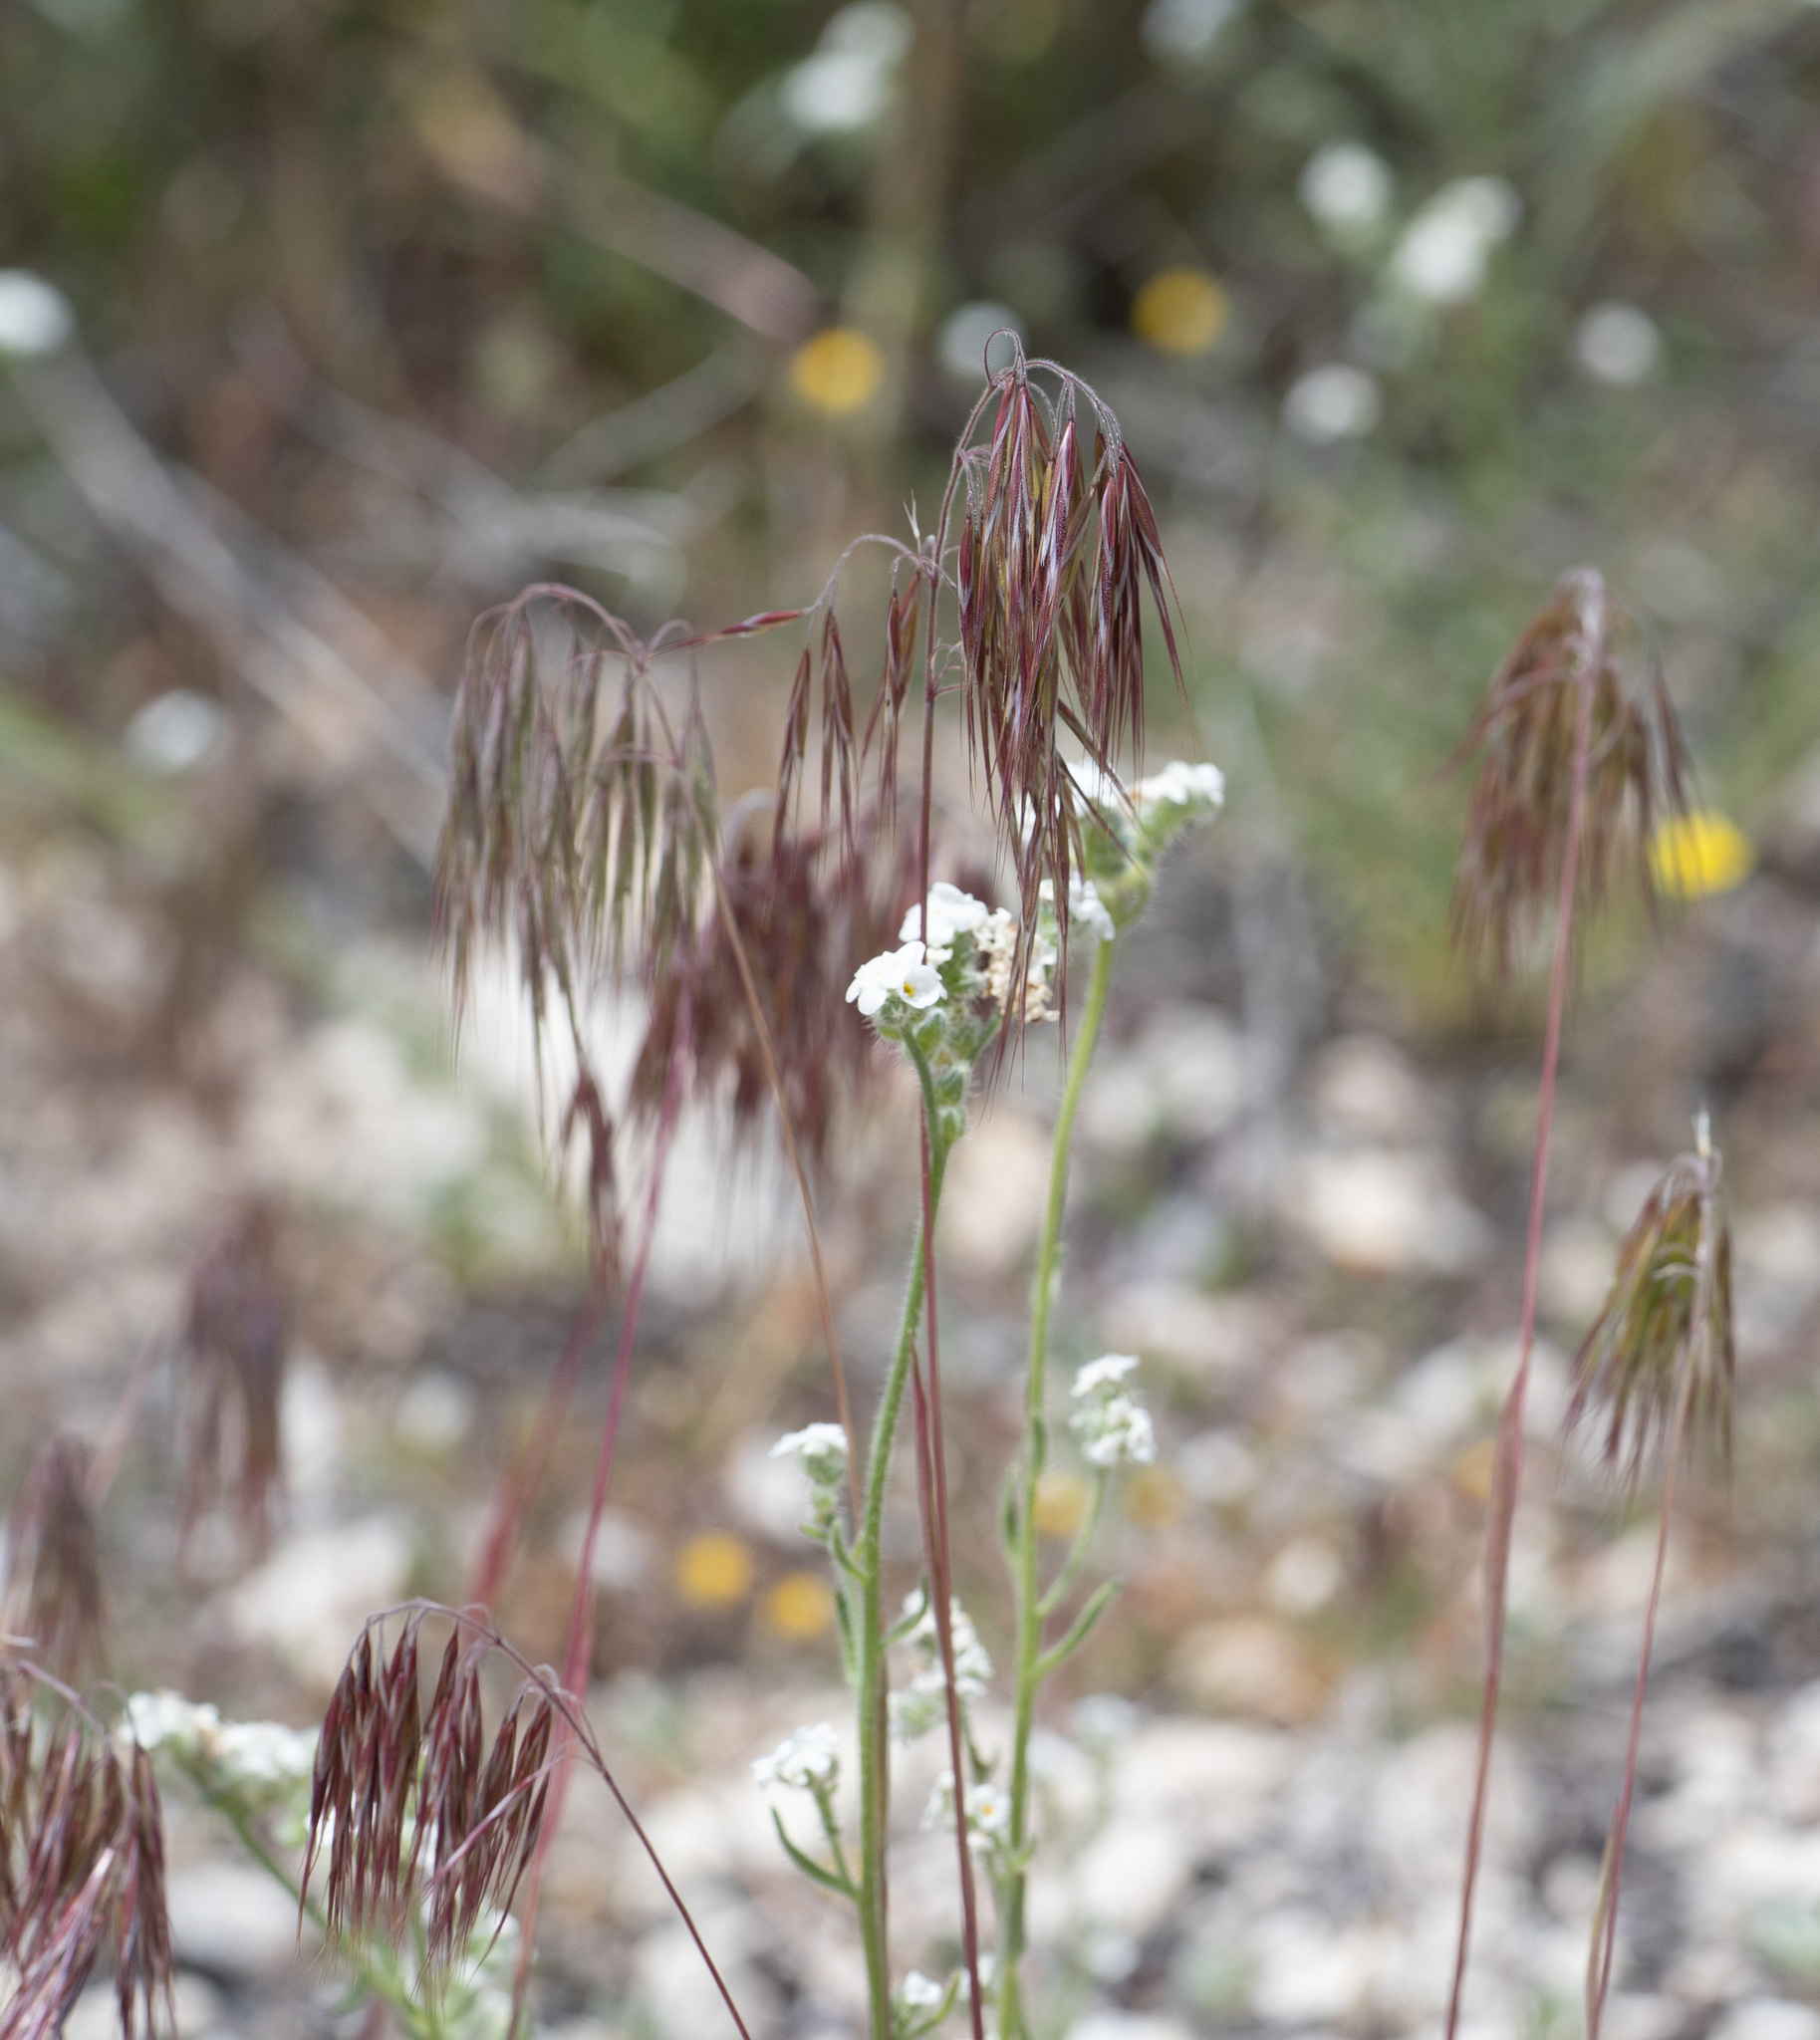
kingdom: Plantae
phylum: Tracheophyta
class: Liliopsida
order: Poales
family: Poaceae
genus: Bromus
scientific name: Bromus tectorum
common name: Cheatgrass
